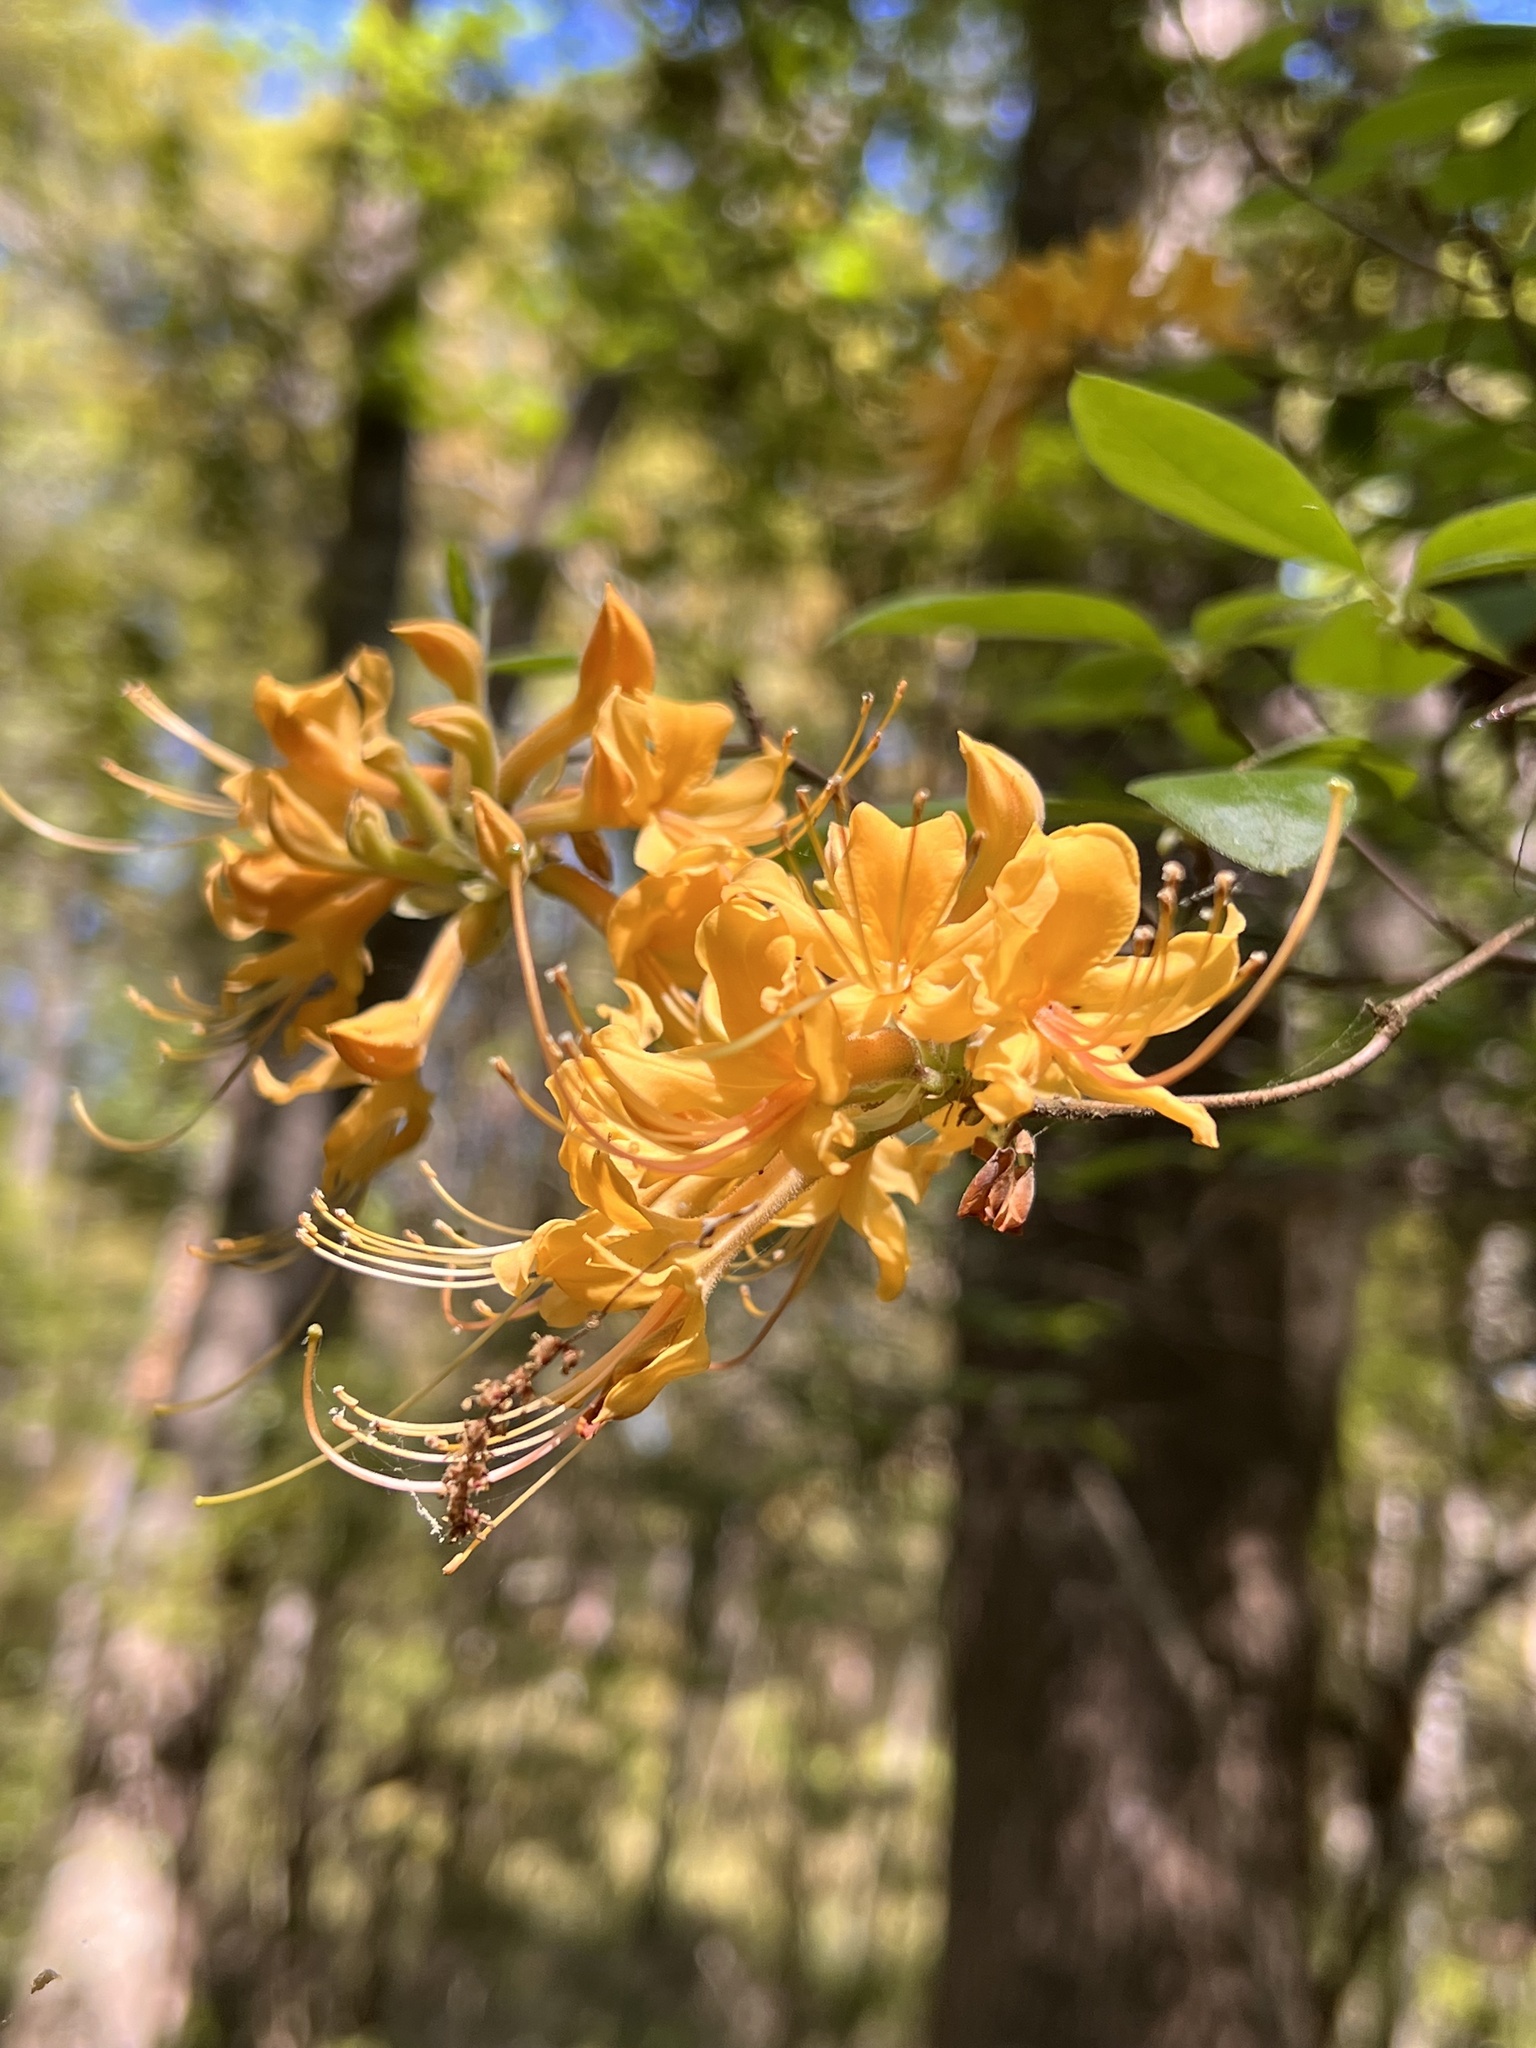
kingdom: Plantae
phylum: Tracheophyta
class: Magnoliopsida
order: Ericales
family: Ericaceae
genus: Rhododendron
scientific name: Rhododendron austrinum
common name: Florida azalea
